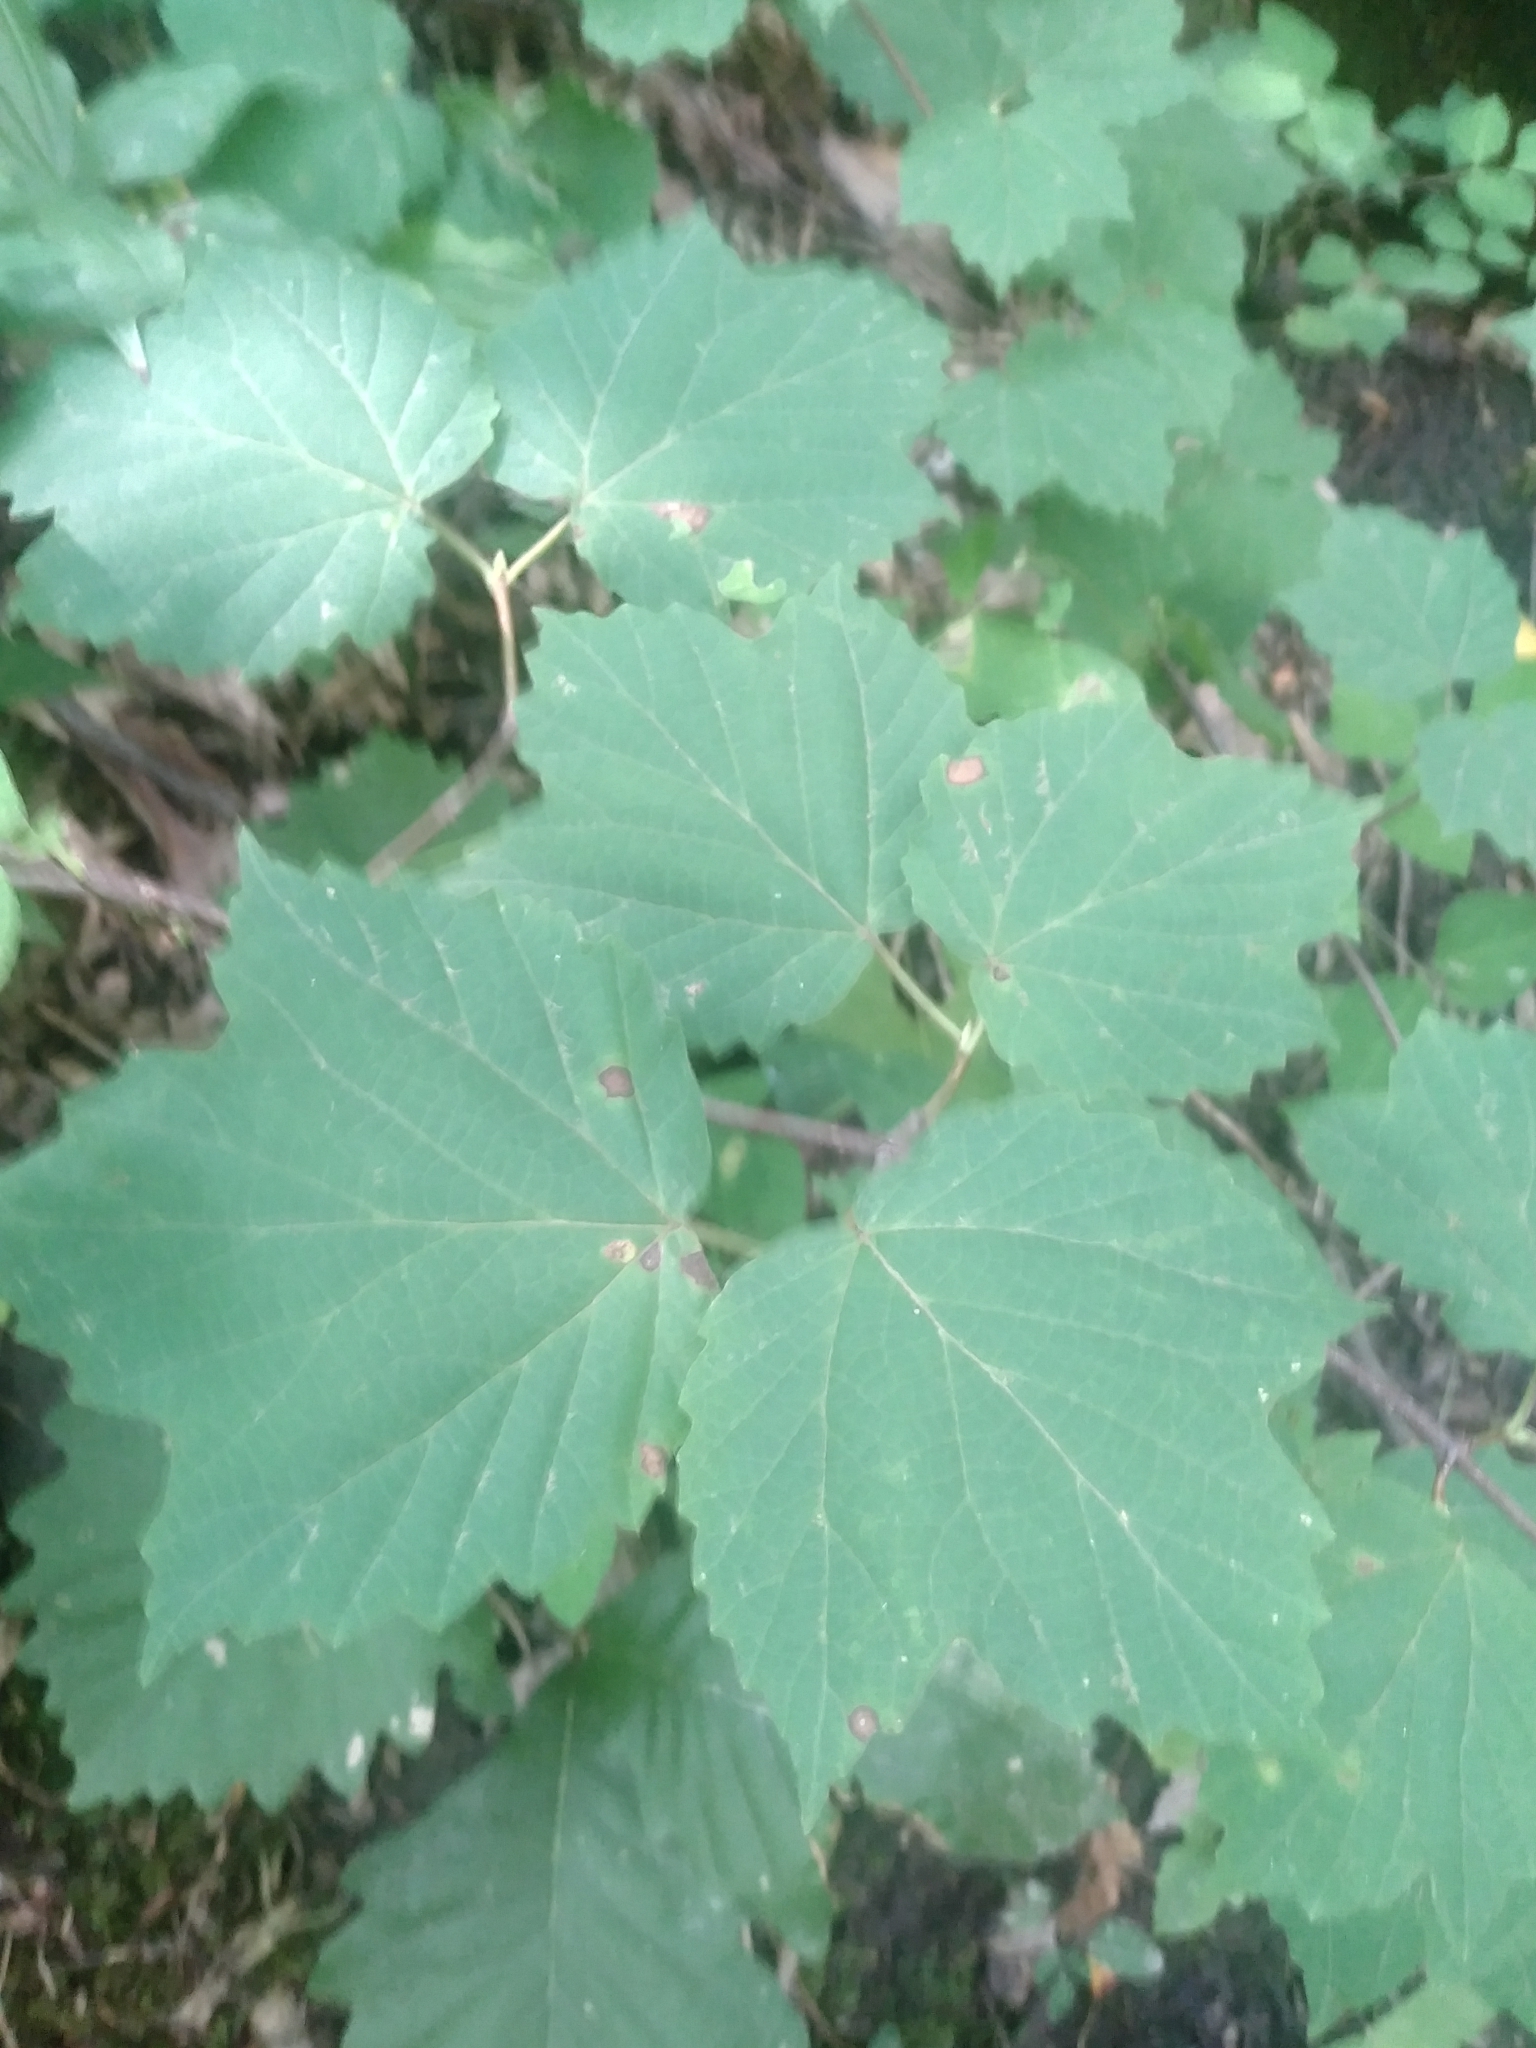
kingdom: Plantae
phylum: Tracheophyta
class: Magnoliopsida
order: Dipsacales
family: Viburnaceae
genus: Viburnum
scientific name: Viburnum acerifolium
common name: Dockmackie
